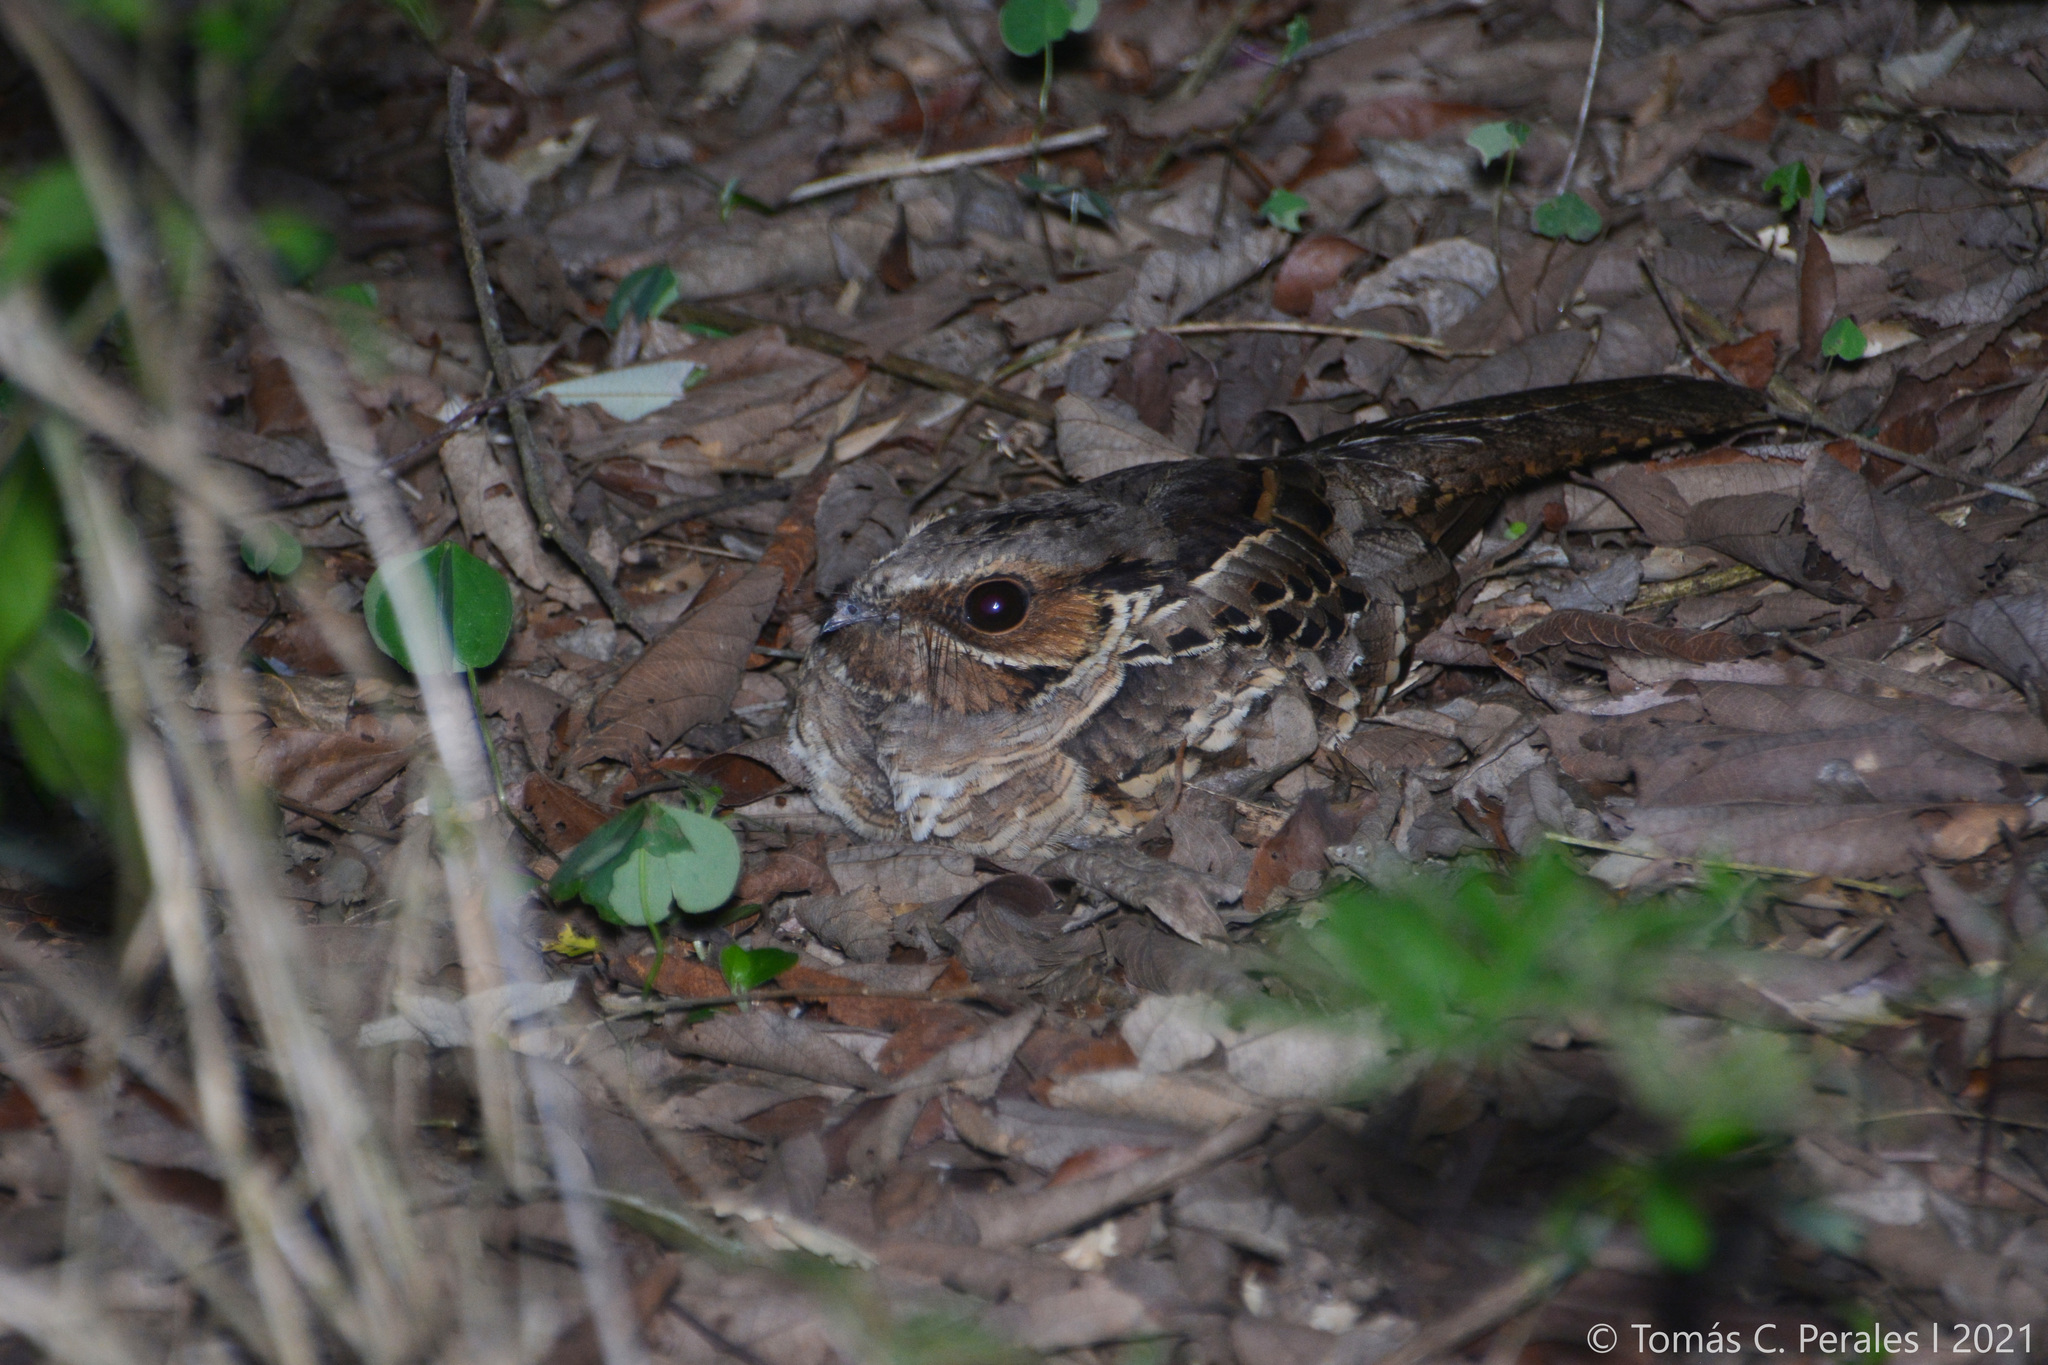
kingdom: Animalia
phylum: Chordata
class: Aves
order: Caprimulgiformes
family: Caprimulgidae
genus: Nyctidromus
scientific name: Nyctidromus albicollis
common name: Pauraque
